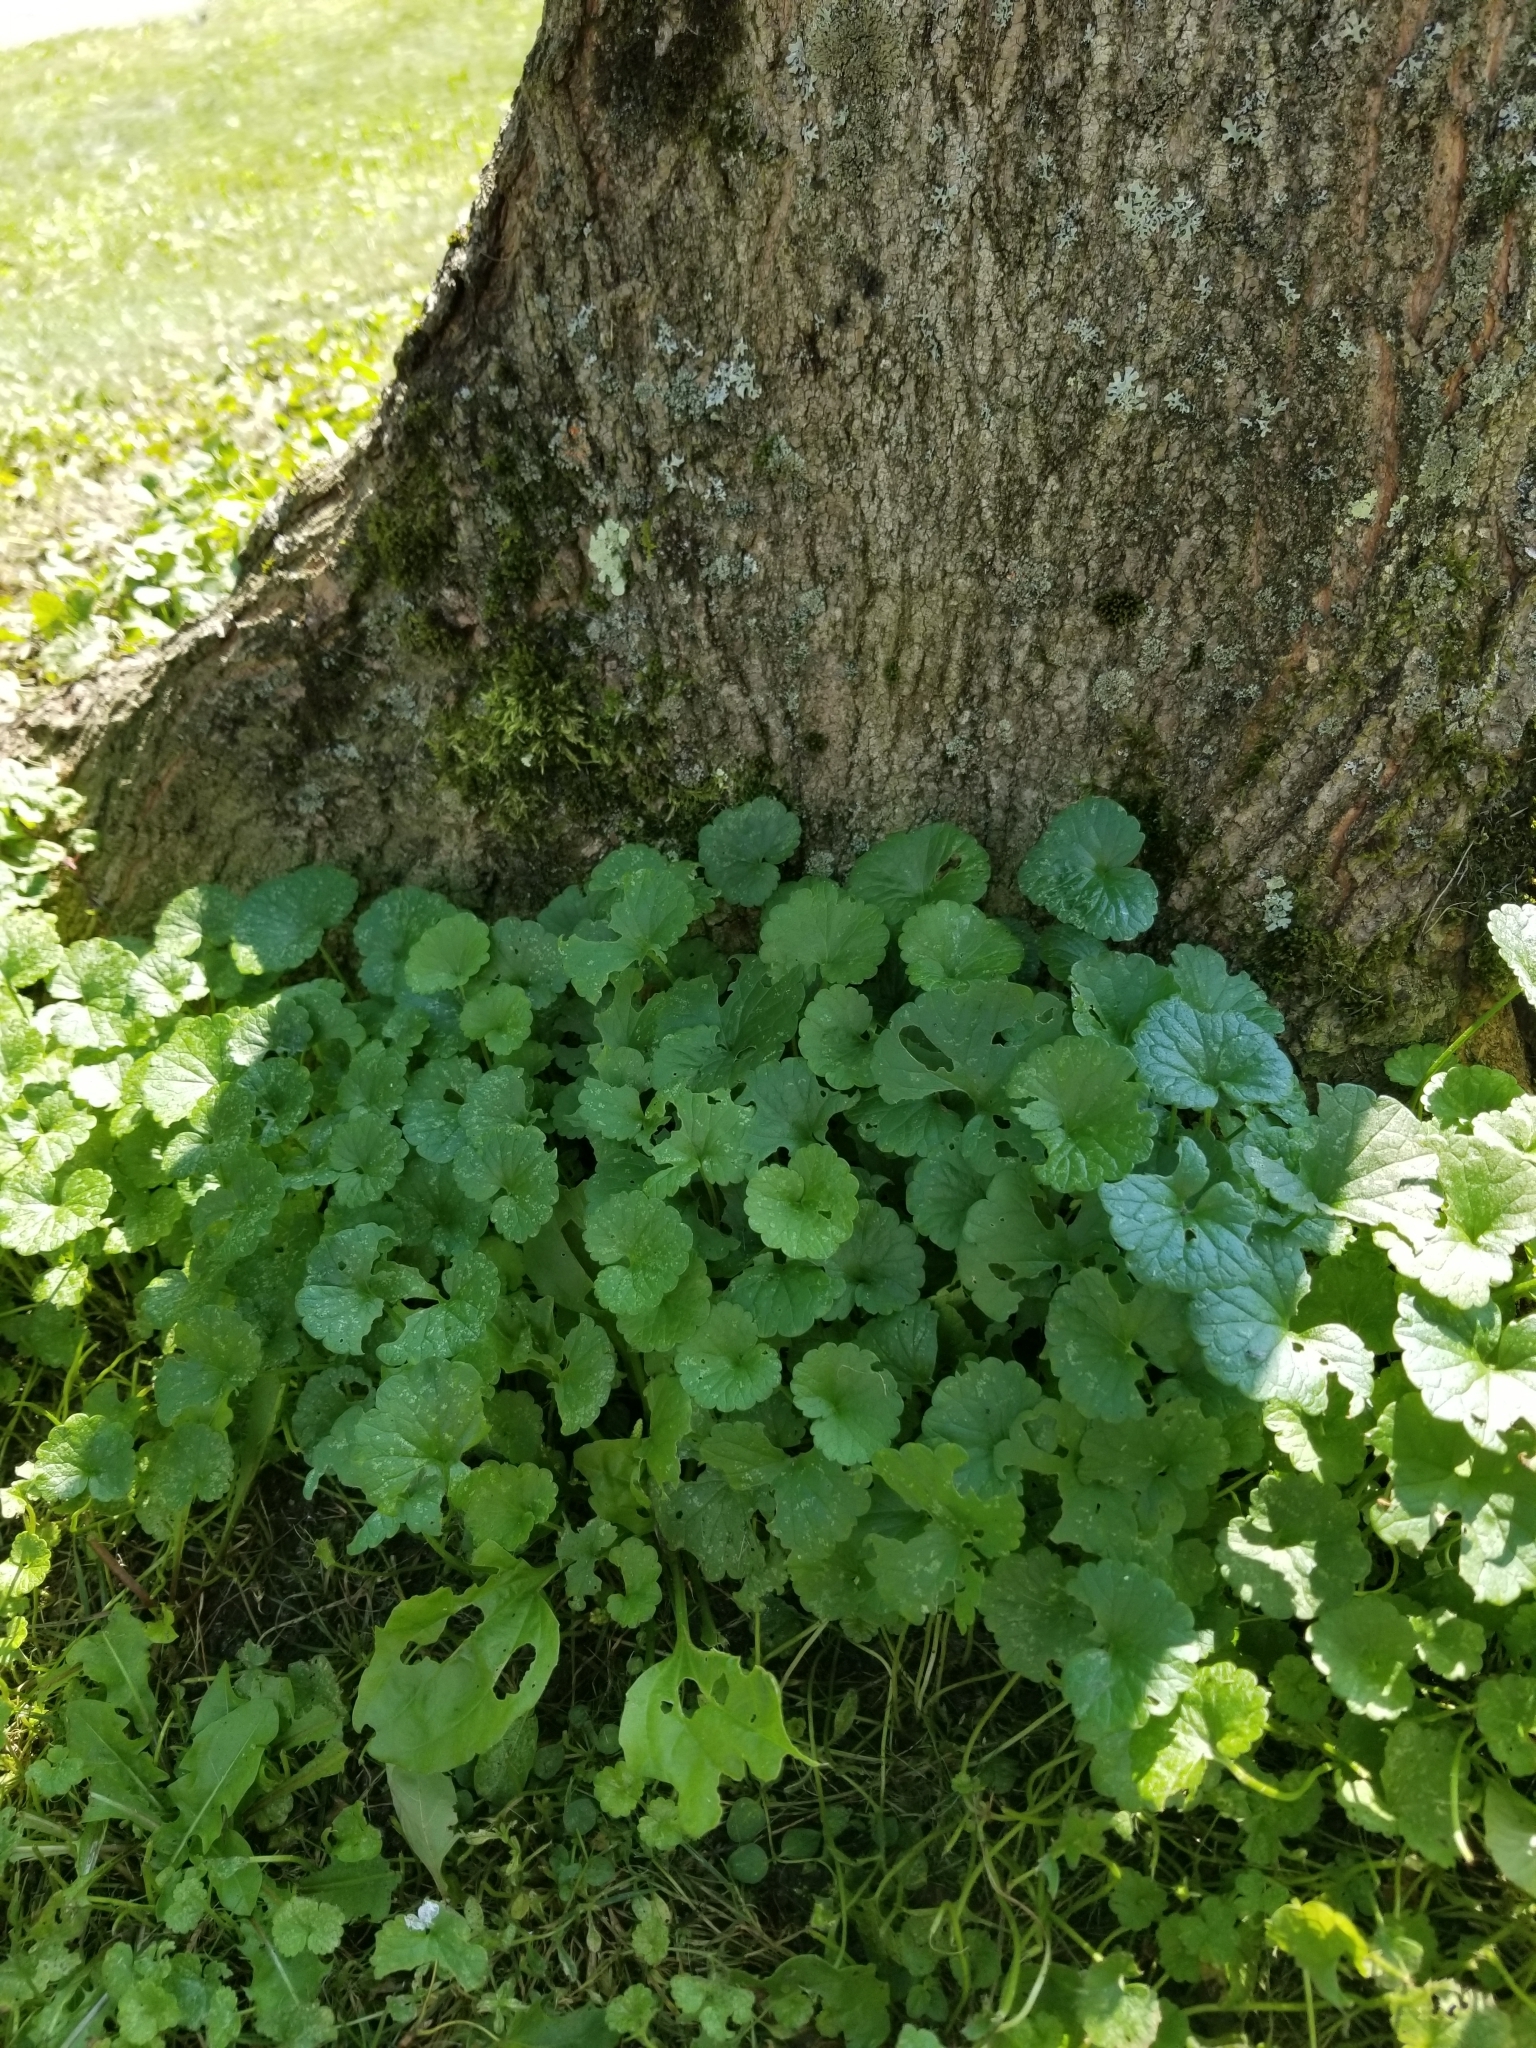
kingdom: Plantae
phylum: Tracheophyta
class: Magnoliopsida
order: Lamiales
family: Lamiaceae
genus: Glechoma
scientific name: Glechoma hederacea
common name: Ground ivy
